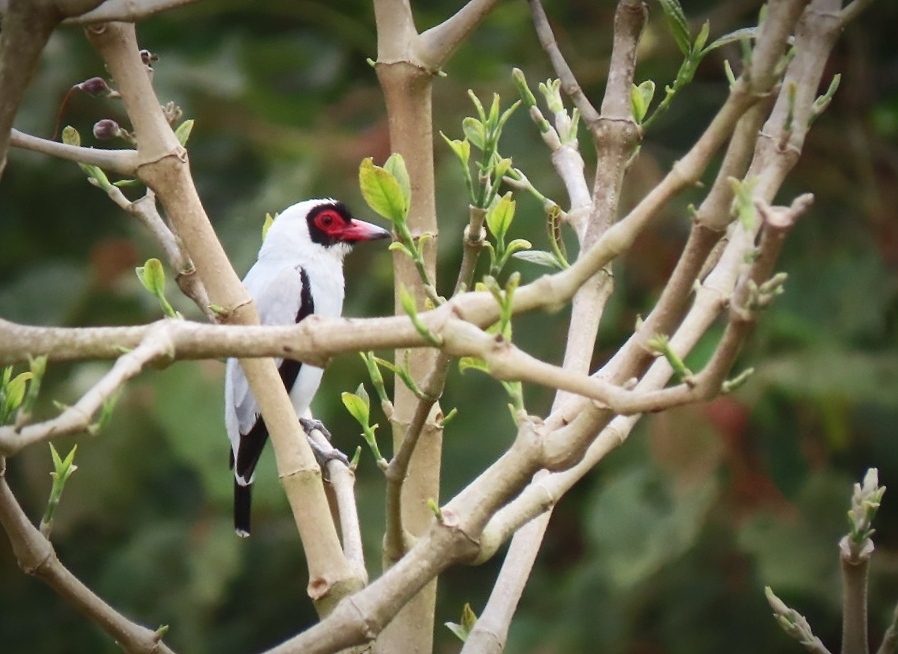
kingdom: Animalia
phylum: Chordata
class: Aves
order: Passeriformes
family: Cotingidae
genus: Tityra
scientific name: Tityra semifasciata
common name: Masked tityra
